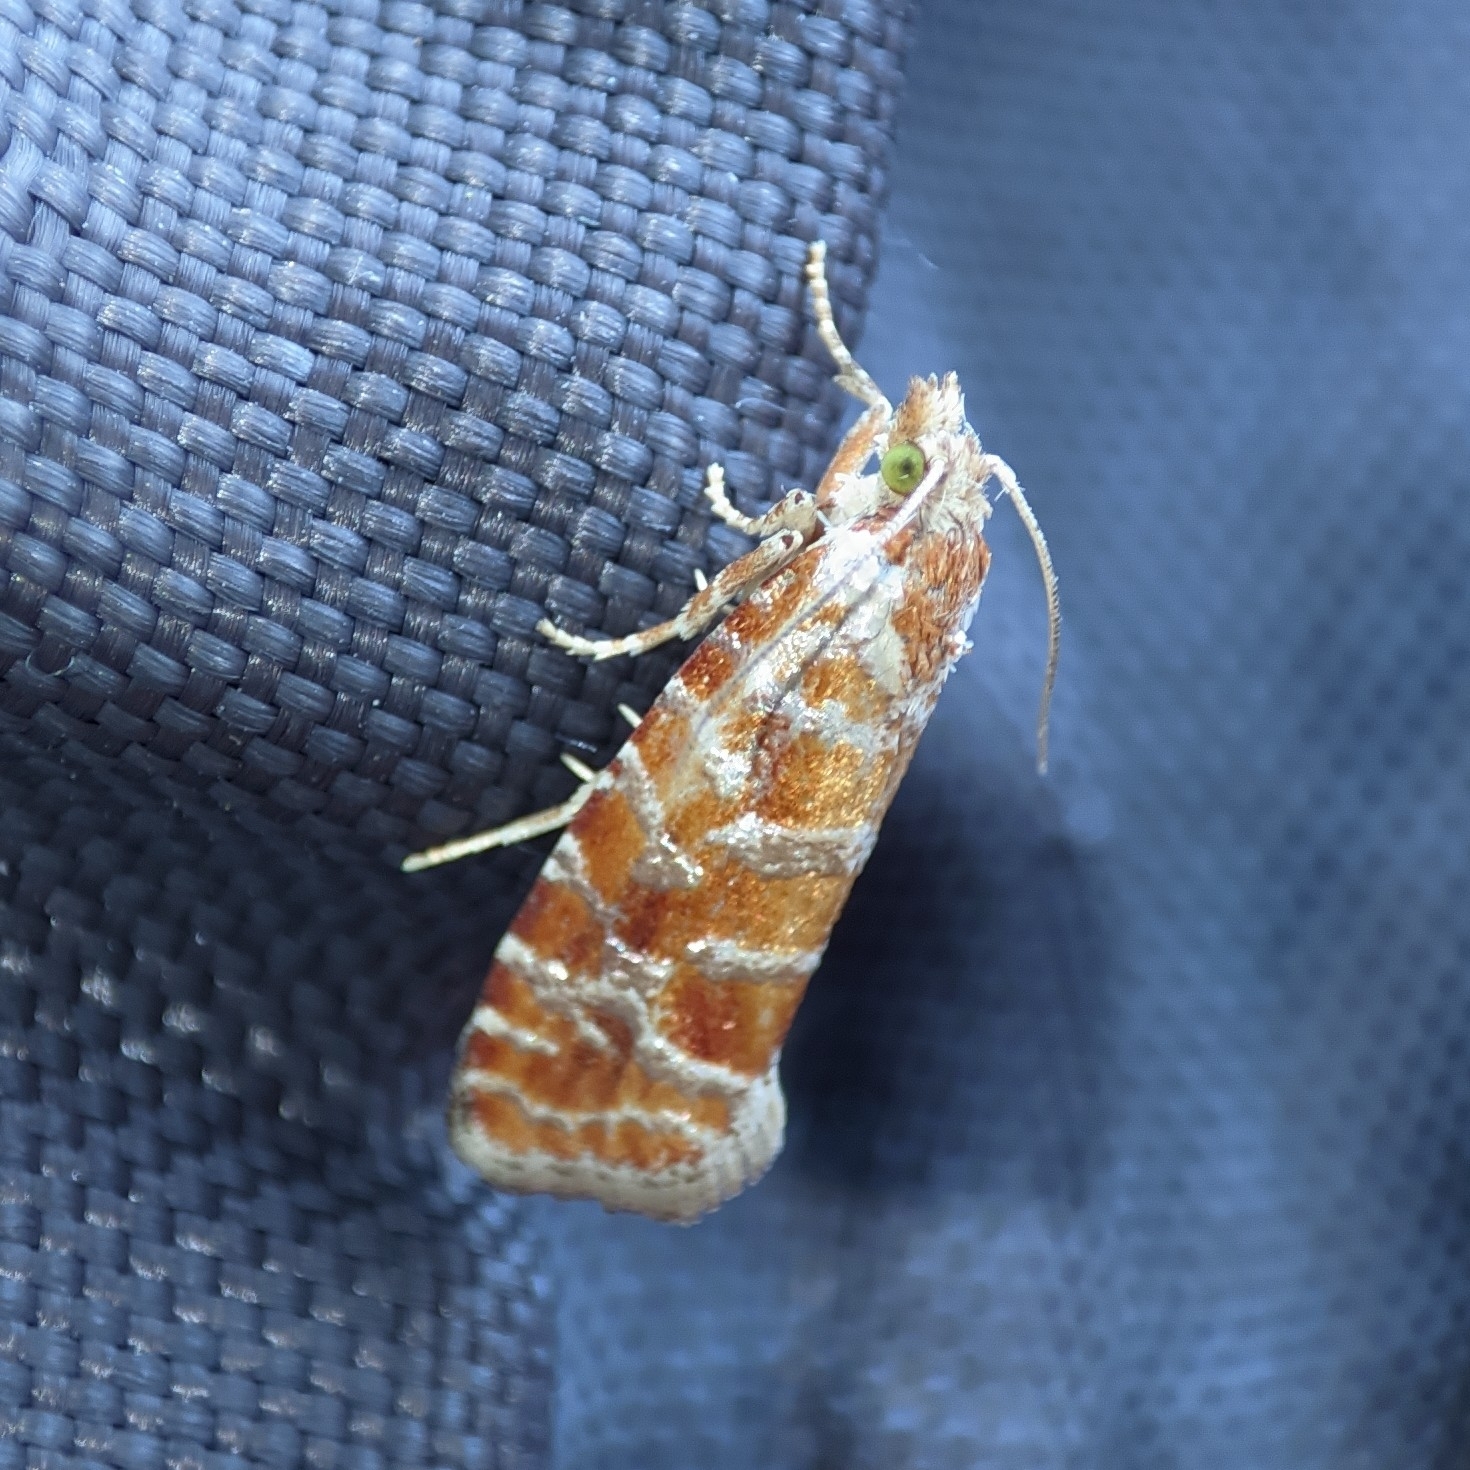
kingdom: Animalia
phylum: Arthropoda
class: Insecta
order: Lepidoptera
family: Tortricidae
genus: Rhyacionia
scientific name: Rhyacionia pinicolana
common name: Orange-spotted shoot
